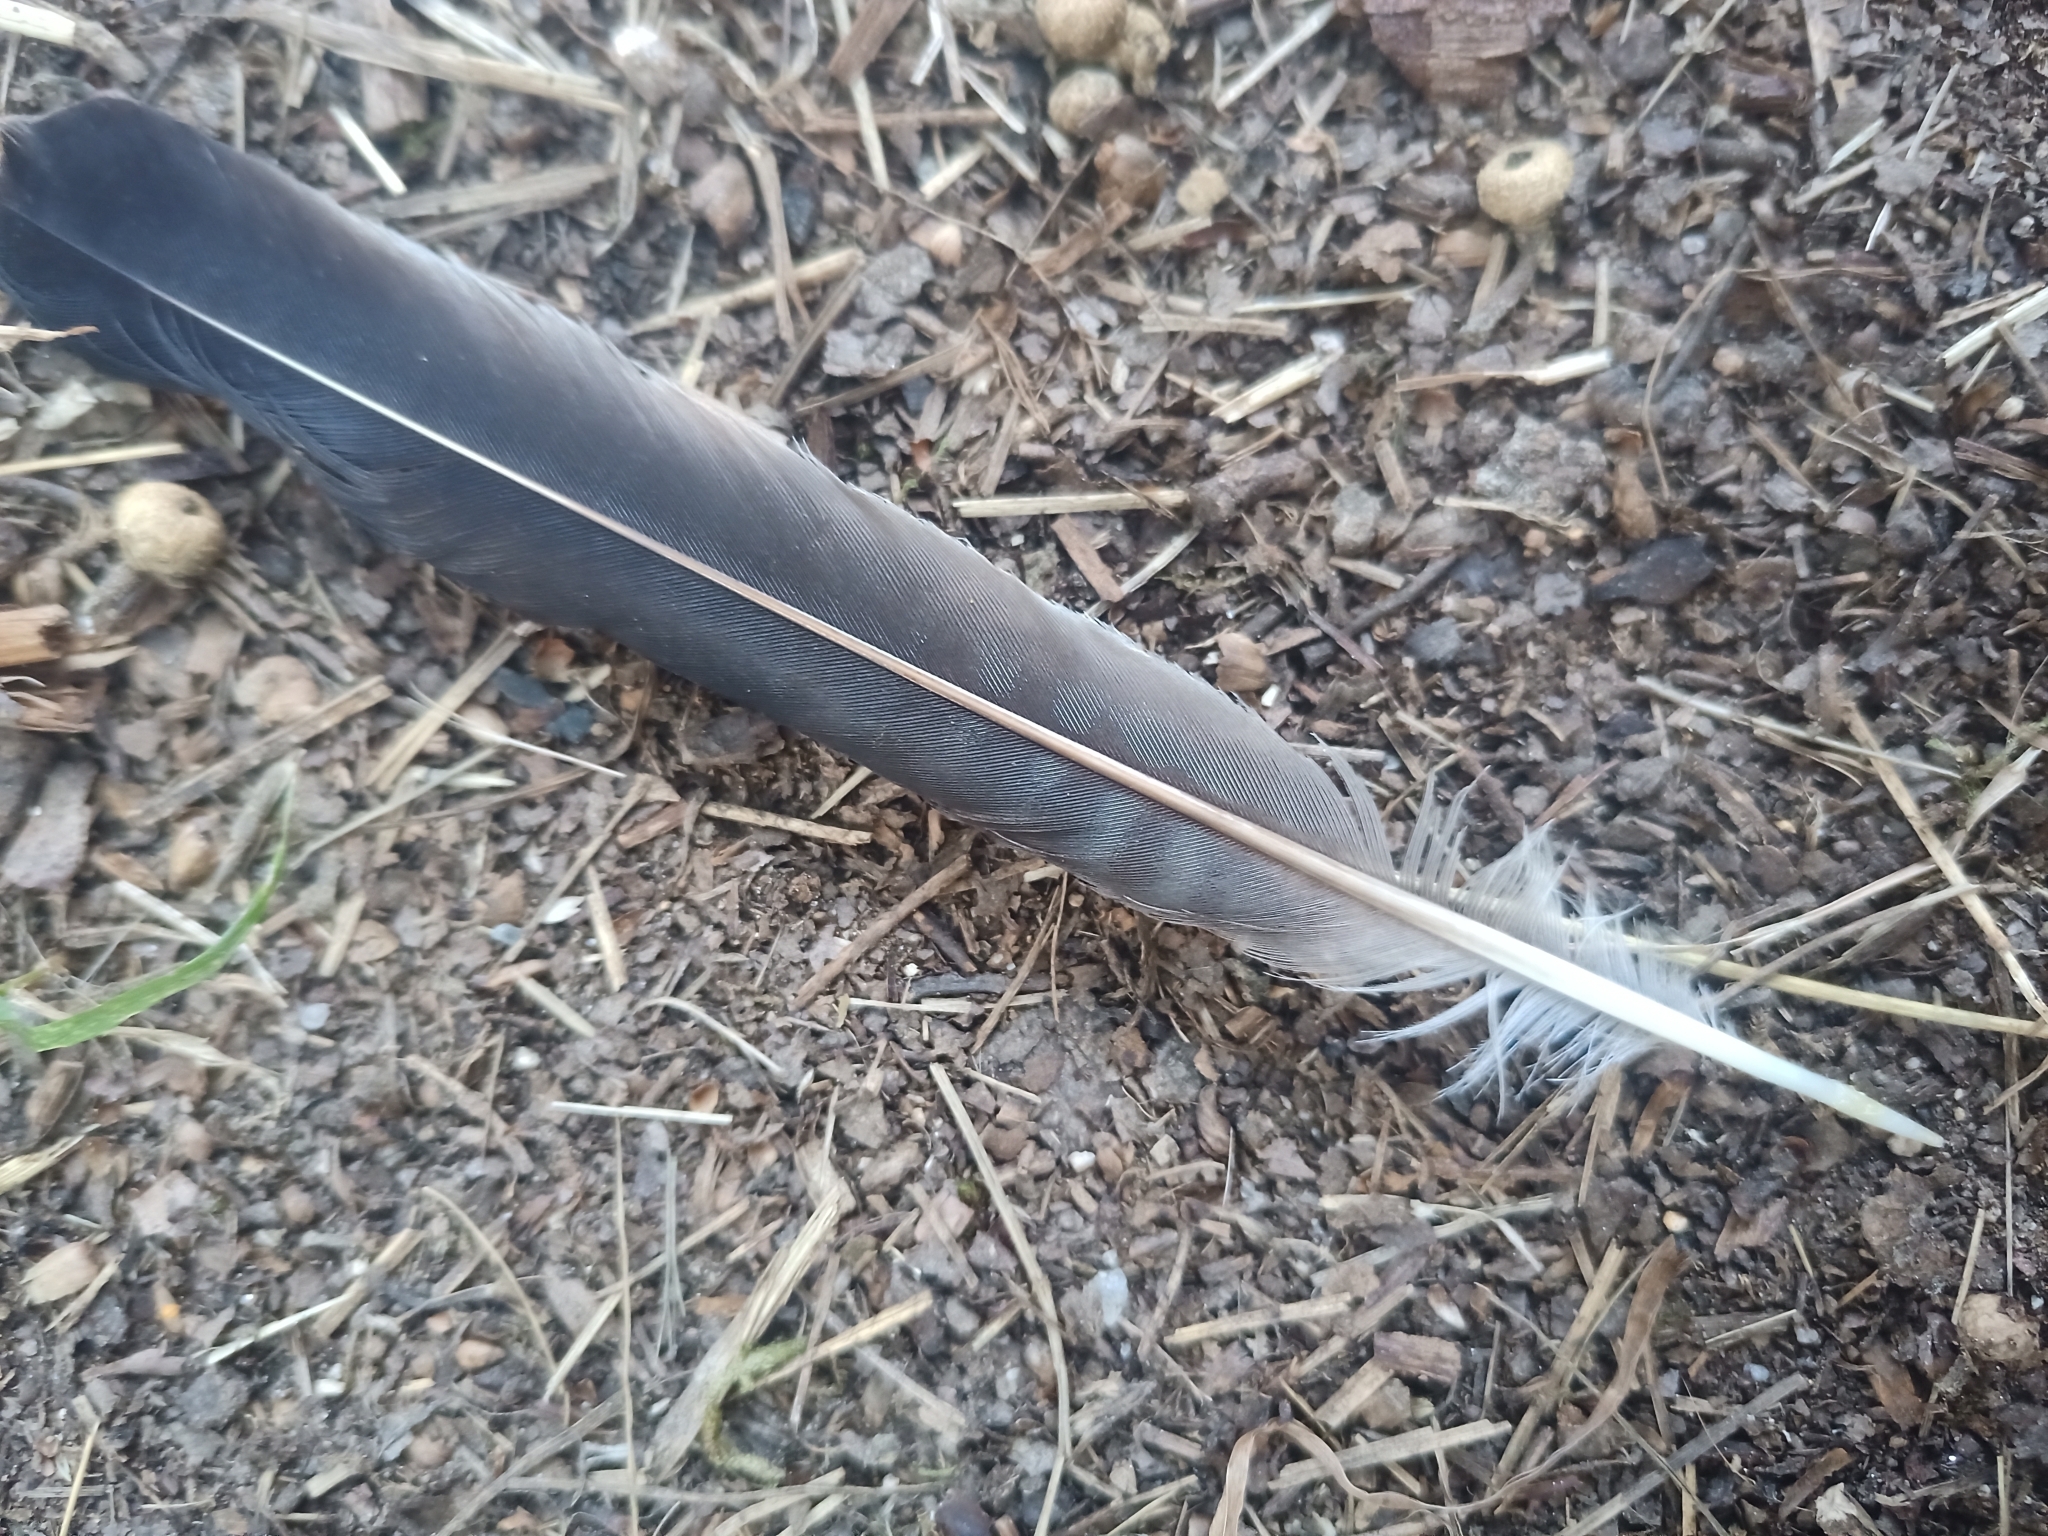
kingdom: Animalia
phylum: Chordata
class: Aves
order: Passeriformes
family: Corvidae
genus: Garrulus
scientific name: Garrulus glandarius
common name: Eurasian jay
